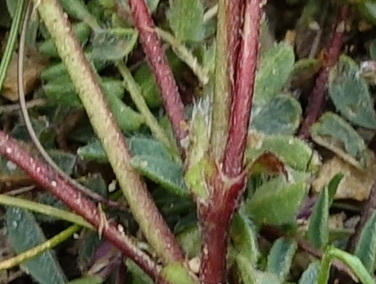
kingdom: Plantae
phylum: Tracheophyta
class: Magnoliopsida
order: Fabales
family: Fabaceae
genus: Oxytropis
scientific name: Oxytropis montana
